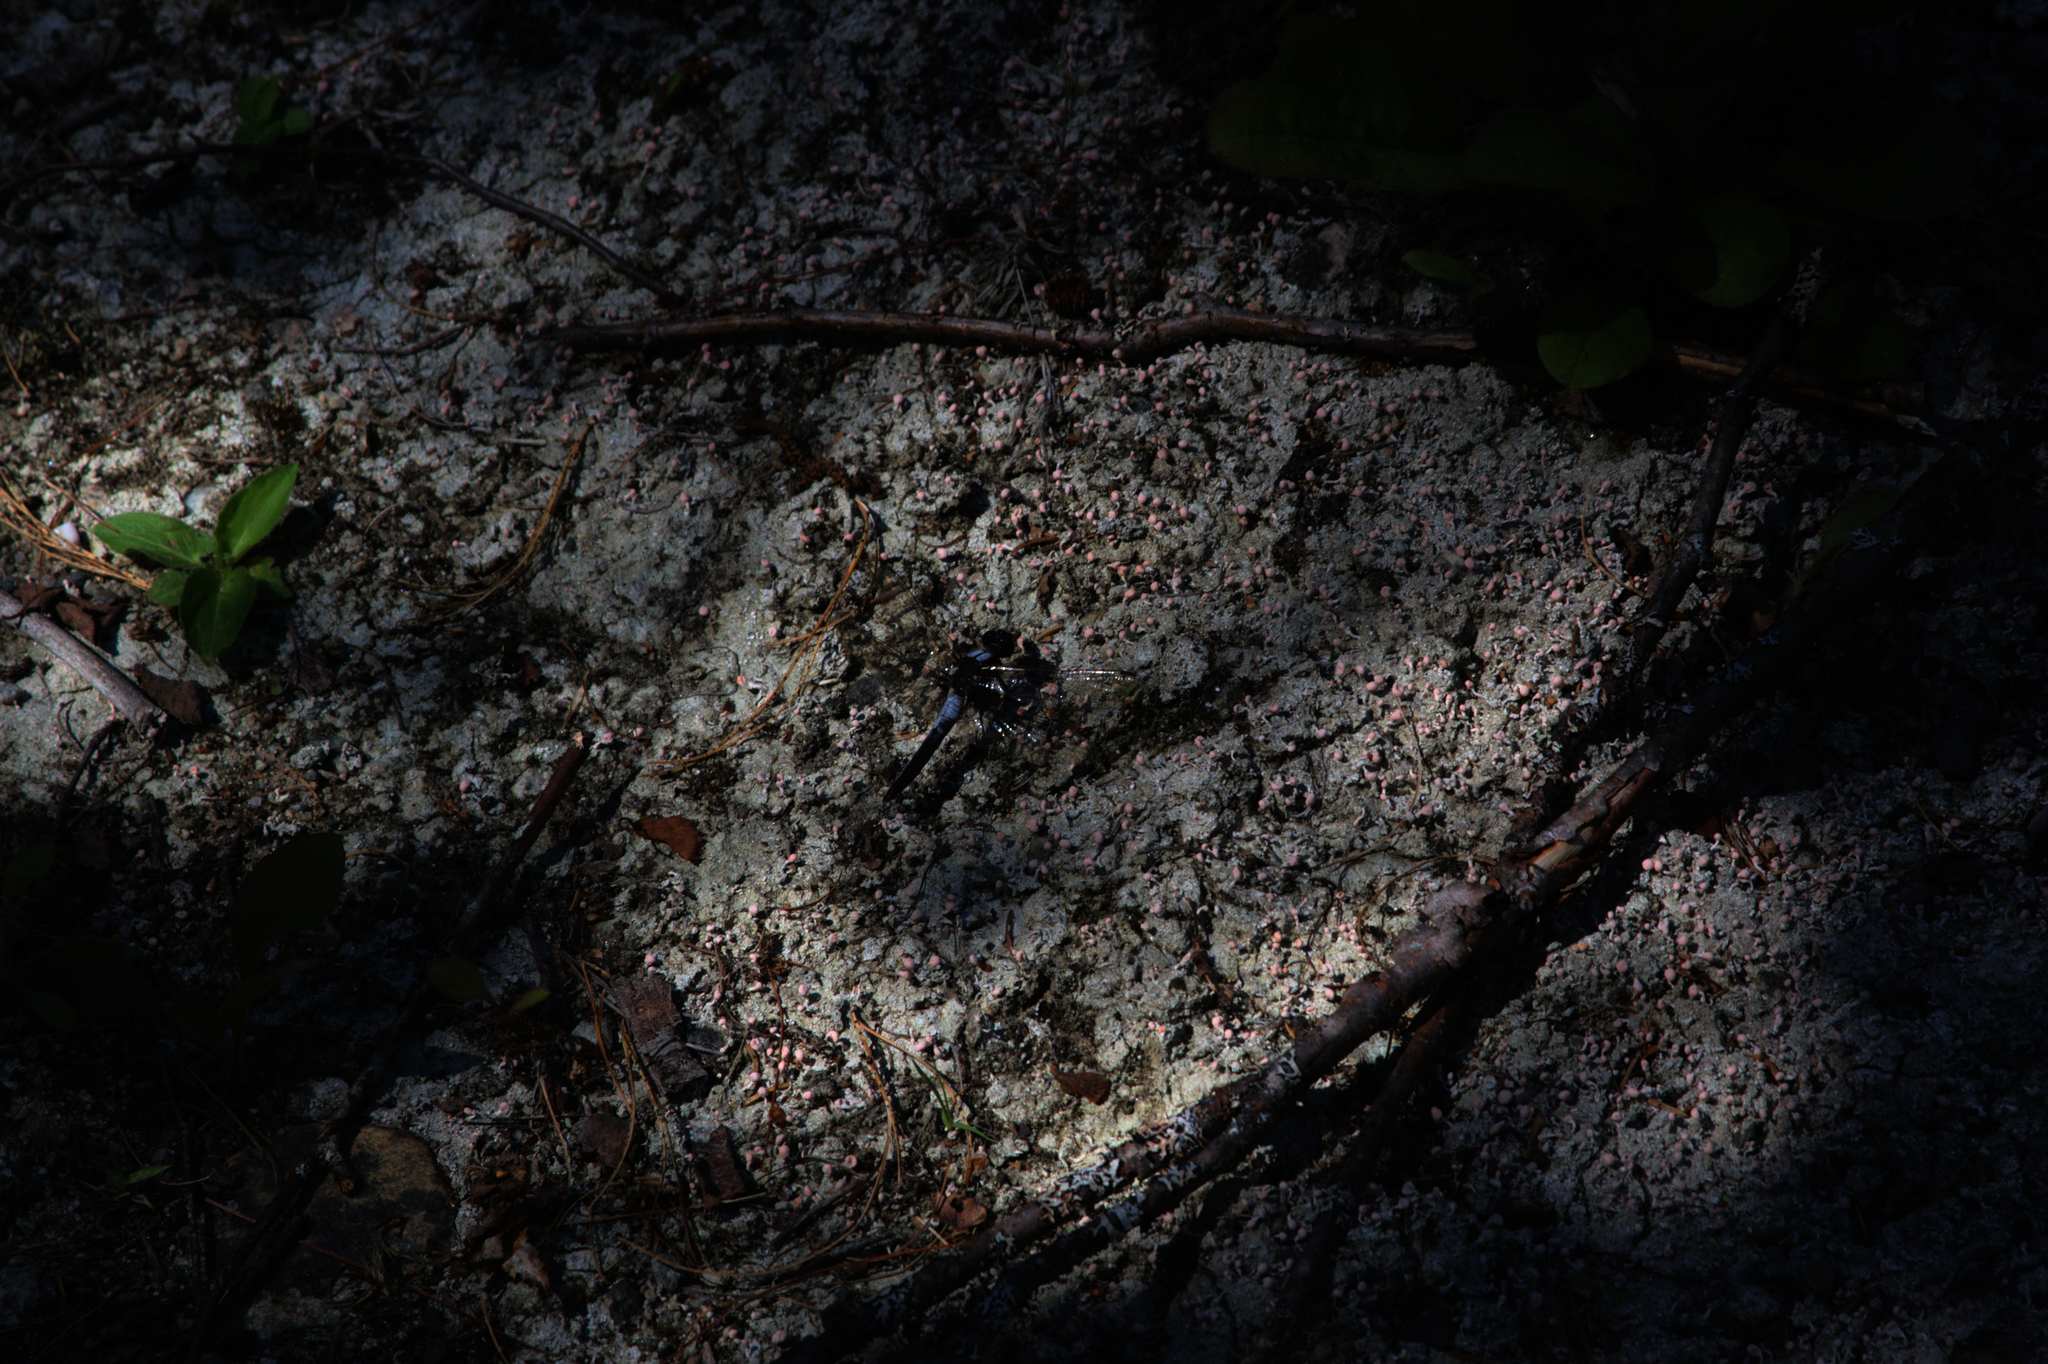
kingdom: Animalia
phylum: Arthropoda
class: Insecta
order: Odonata
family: Libellulidae
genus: Ladona
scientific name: Ladona julia
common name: Chalk-fronted corporal
